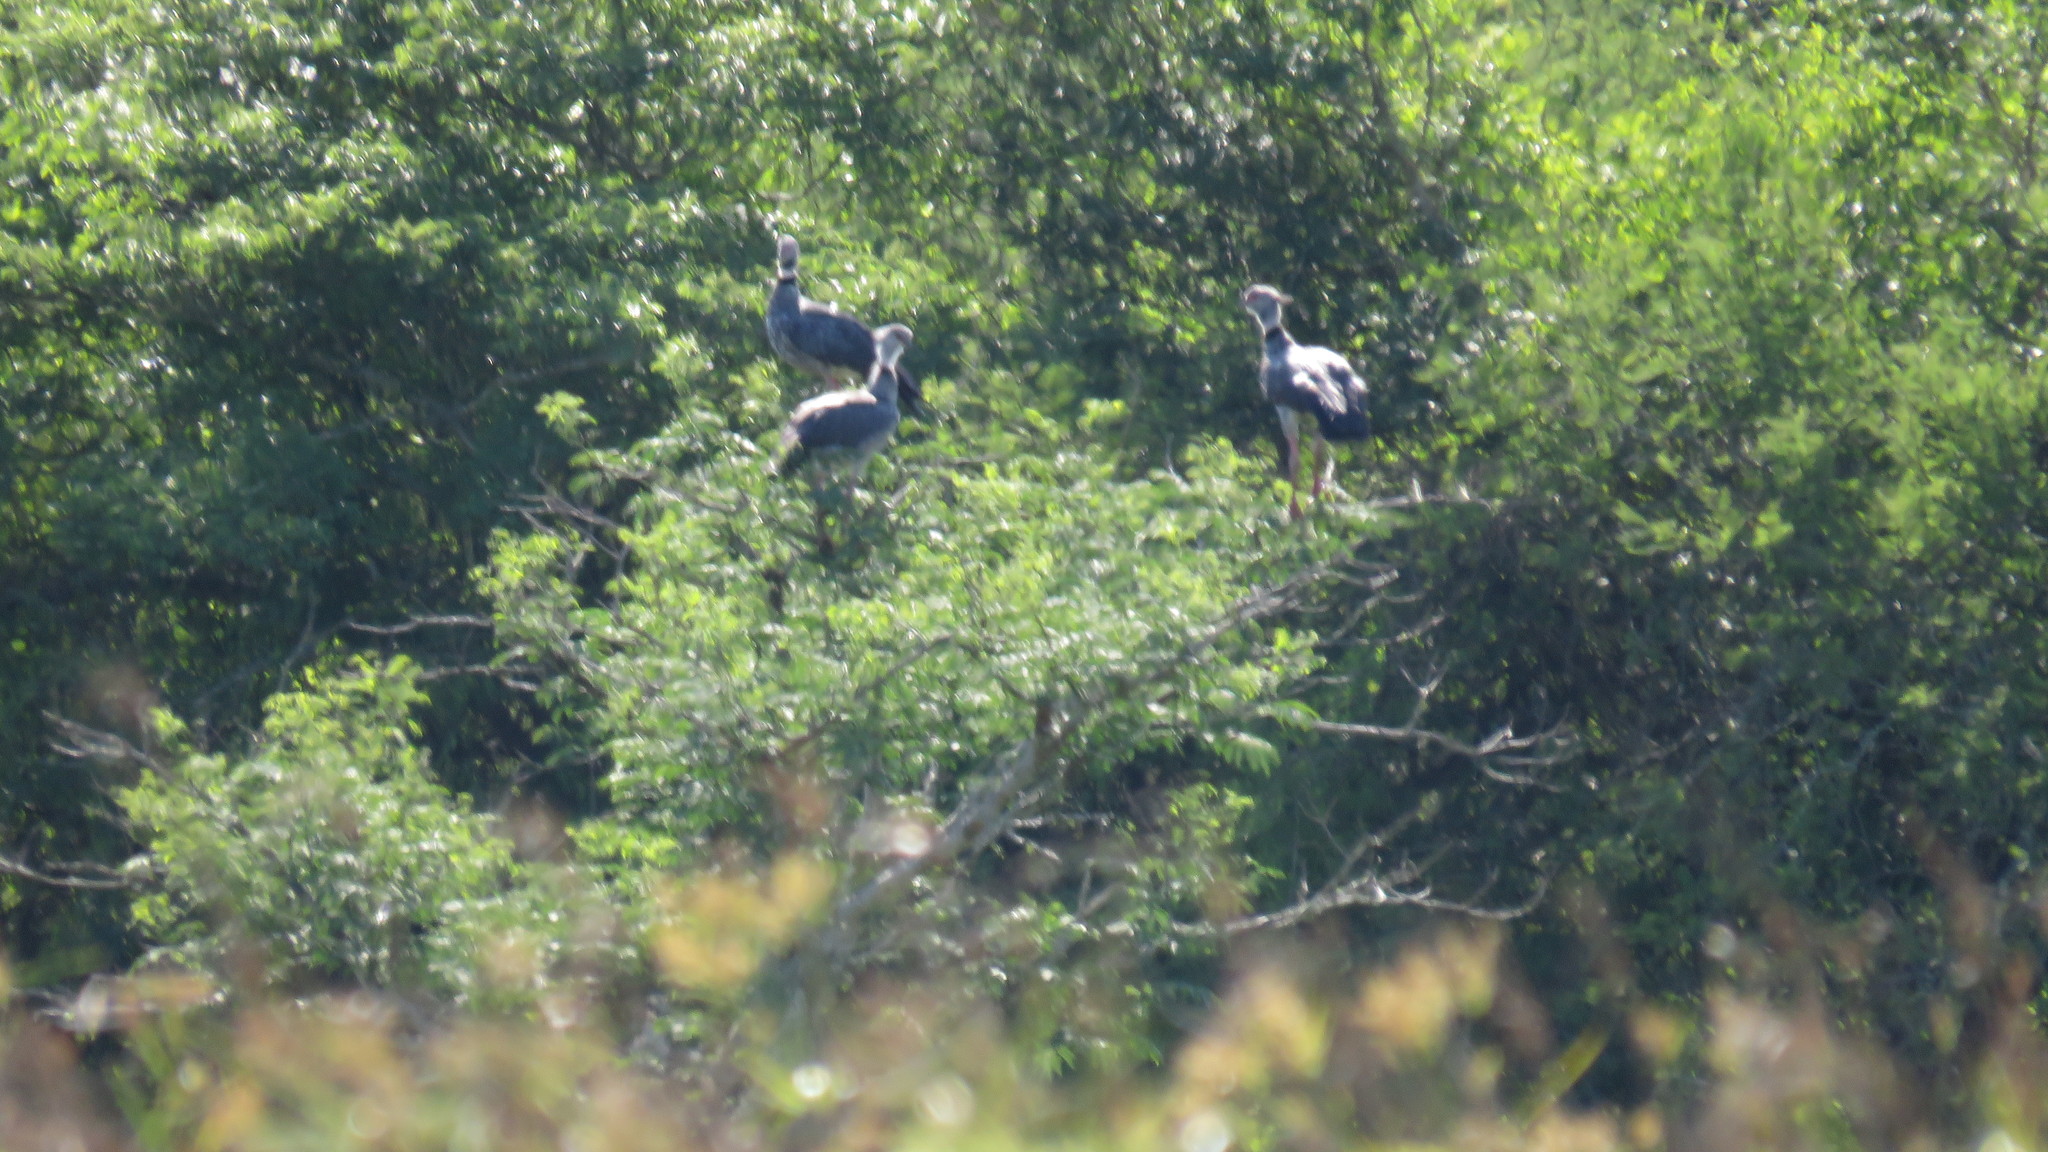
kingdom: Animalia
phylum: Chordata
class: Aves
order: Anseriformes
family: Anhimidae
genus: Chauna
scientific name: Chauna torquata
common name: Southern screamer
